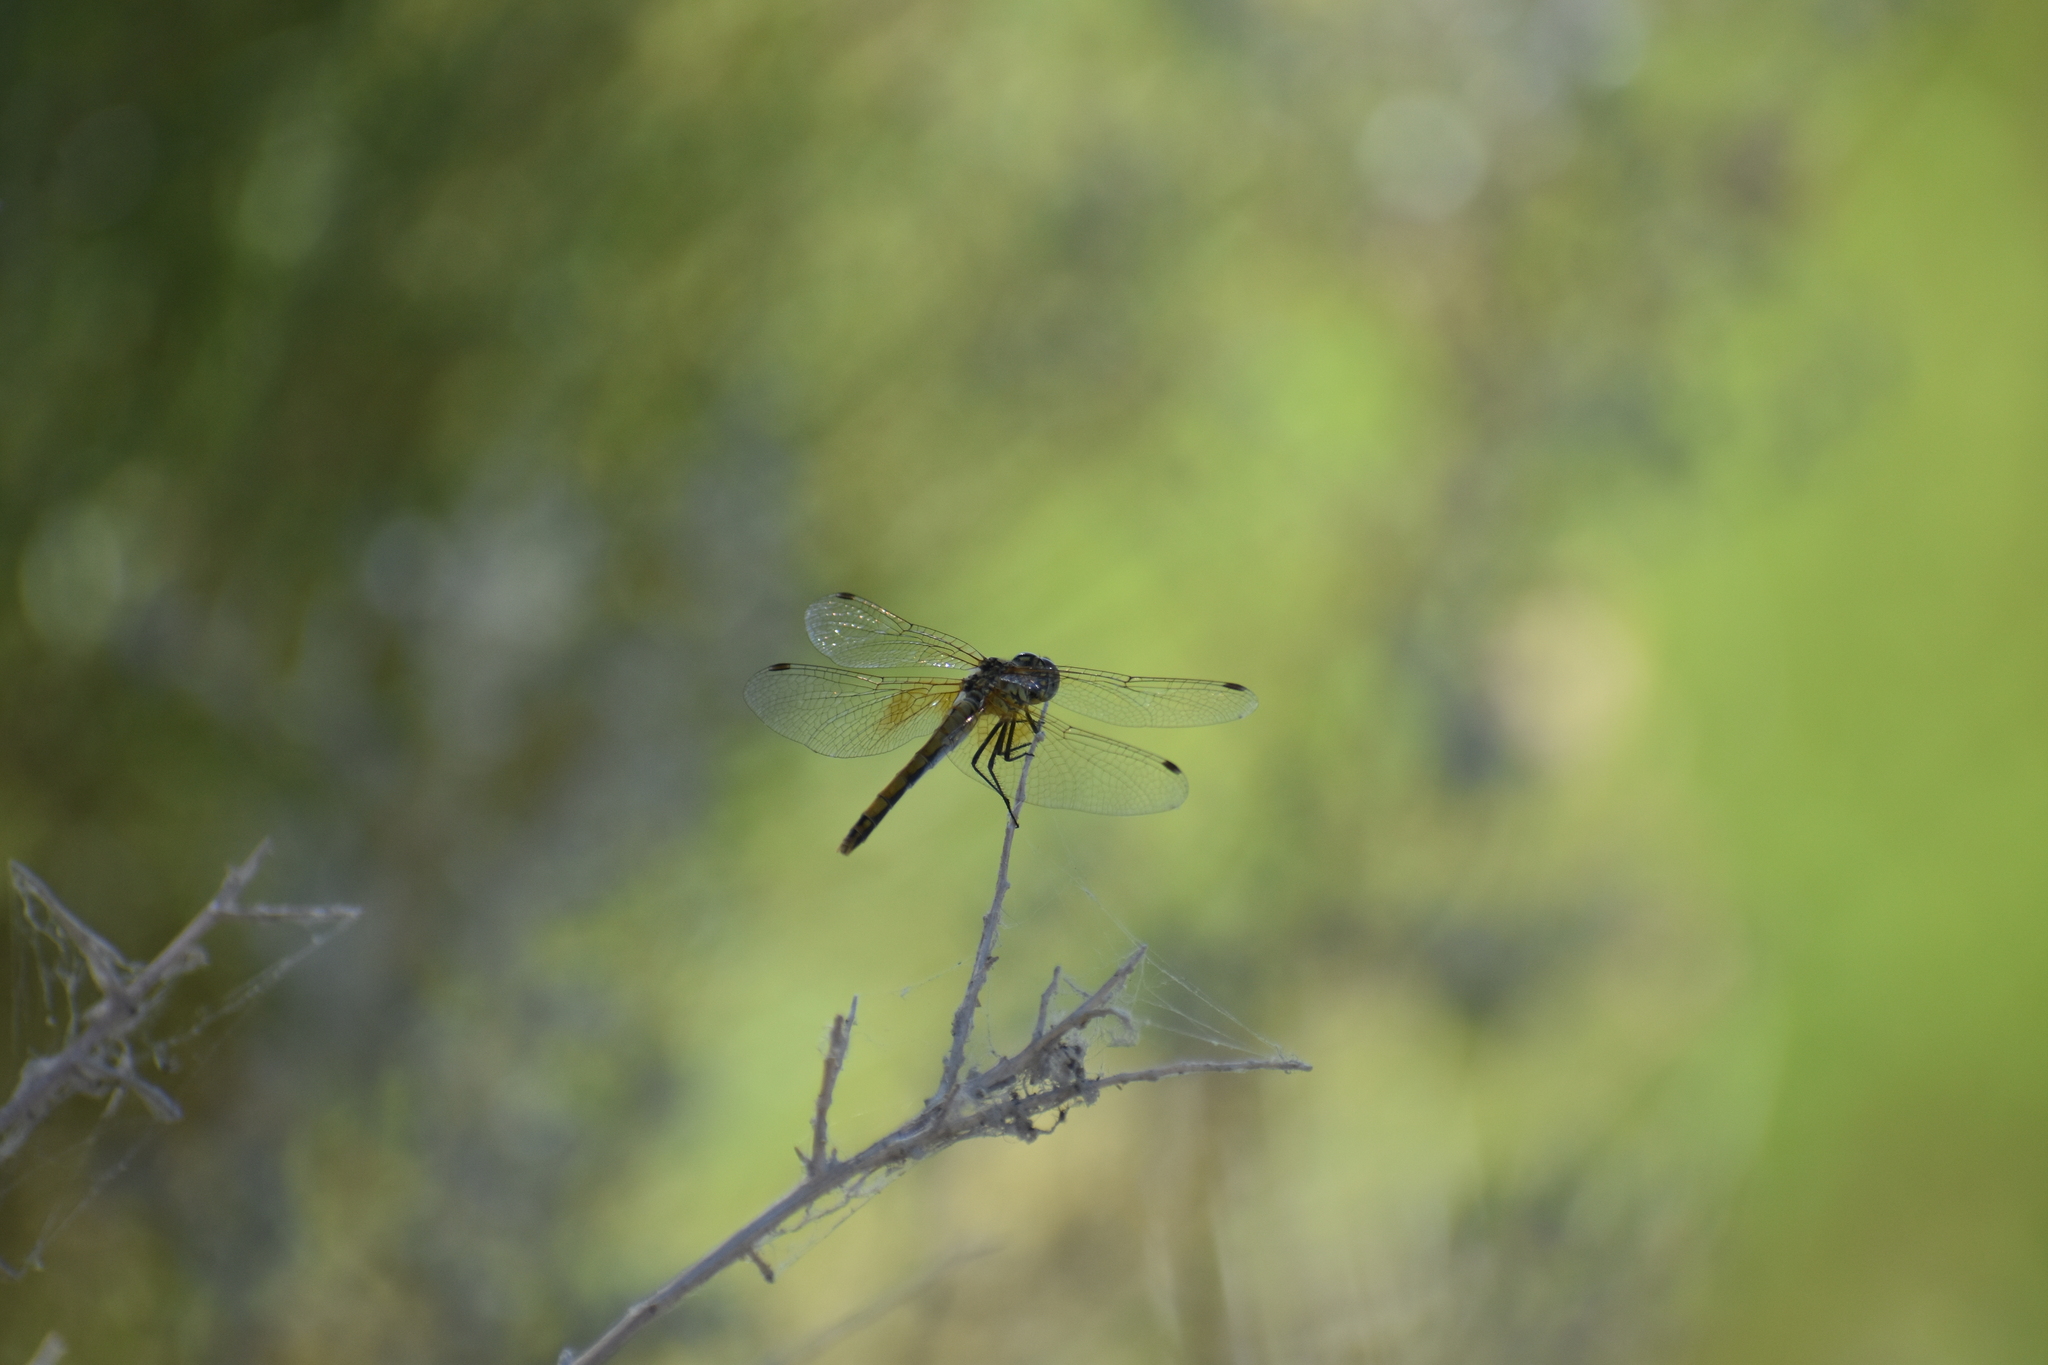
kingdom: Animalia
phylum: Arthropoda
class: Insecta
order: Odonata
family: Libellulidae
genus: Sympetrum
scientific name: Sympetrum semicinctum
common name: Band-winged meadowhawk
